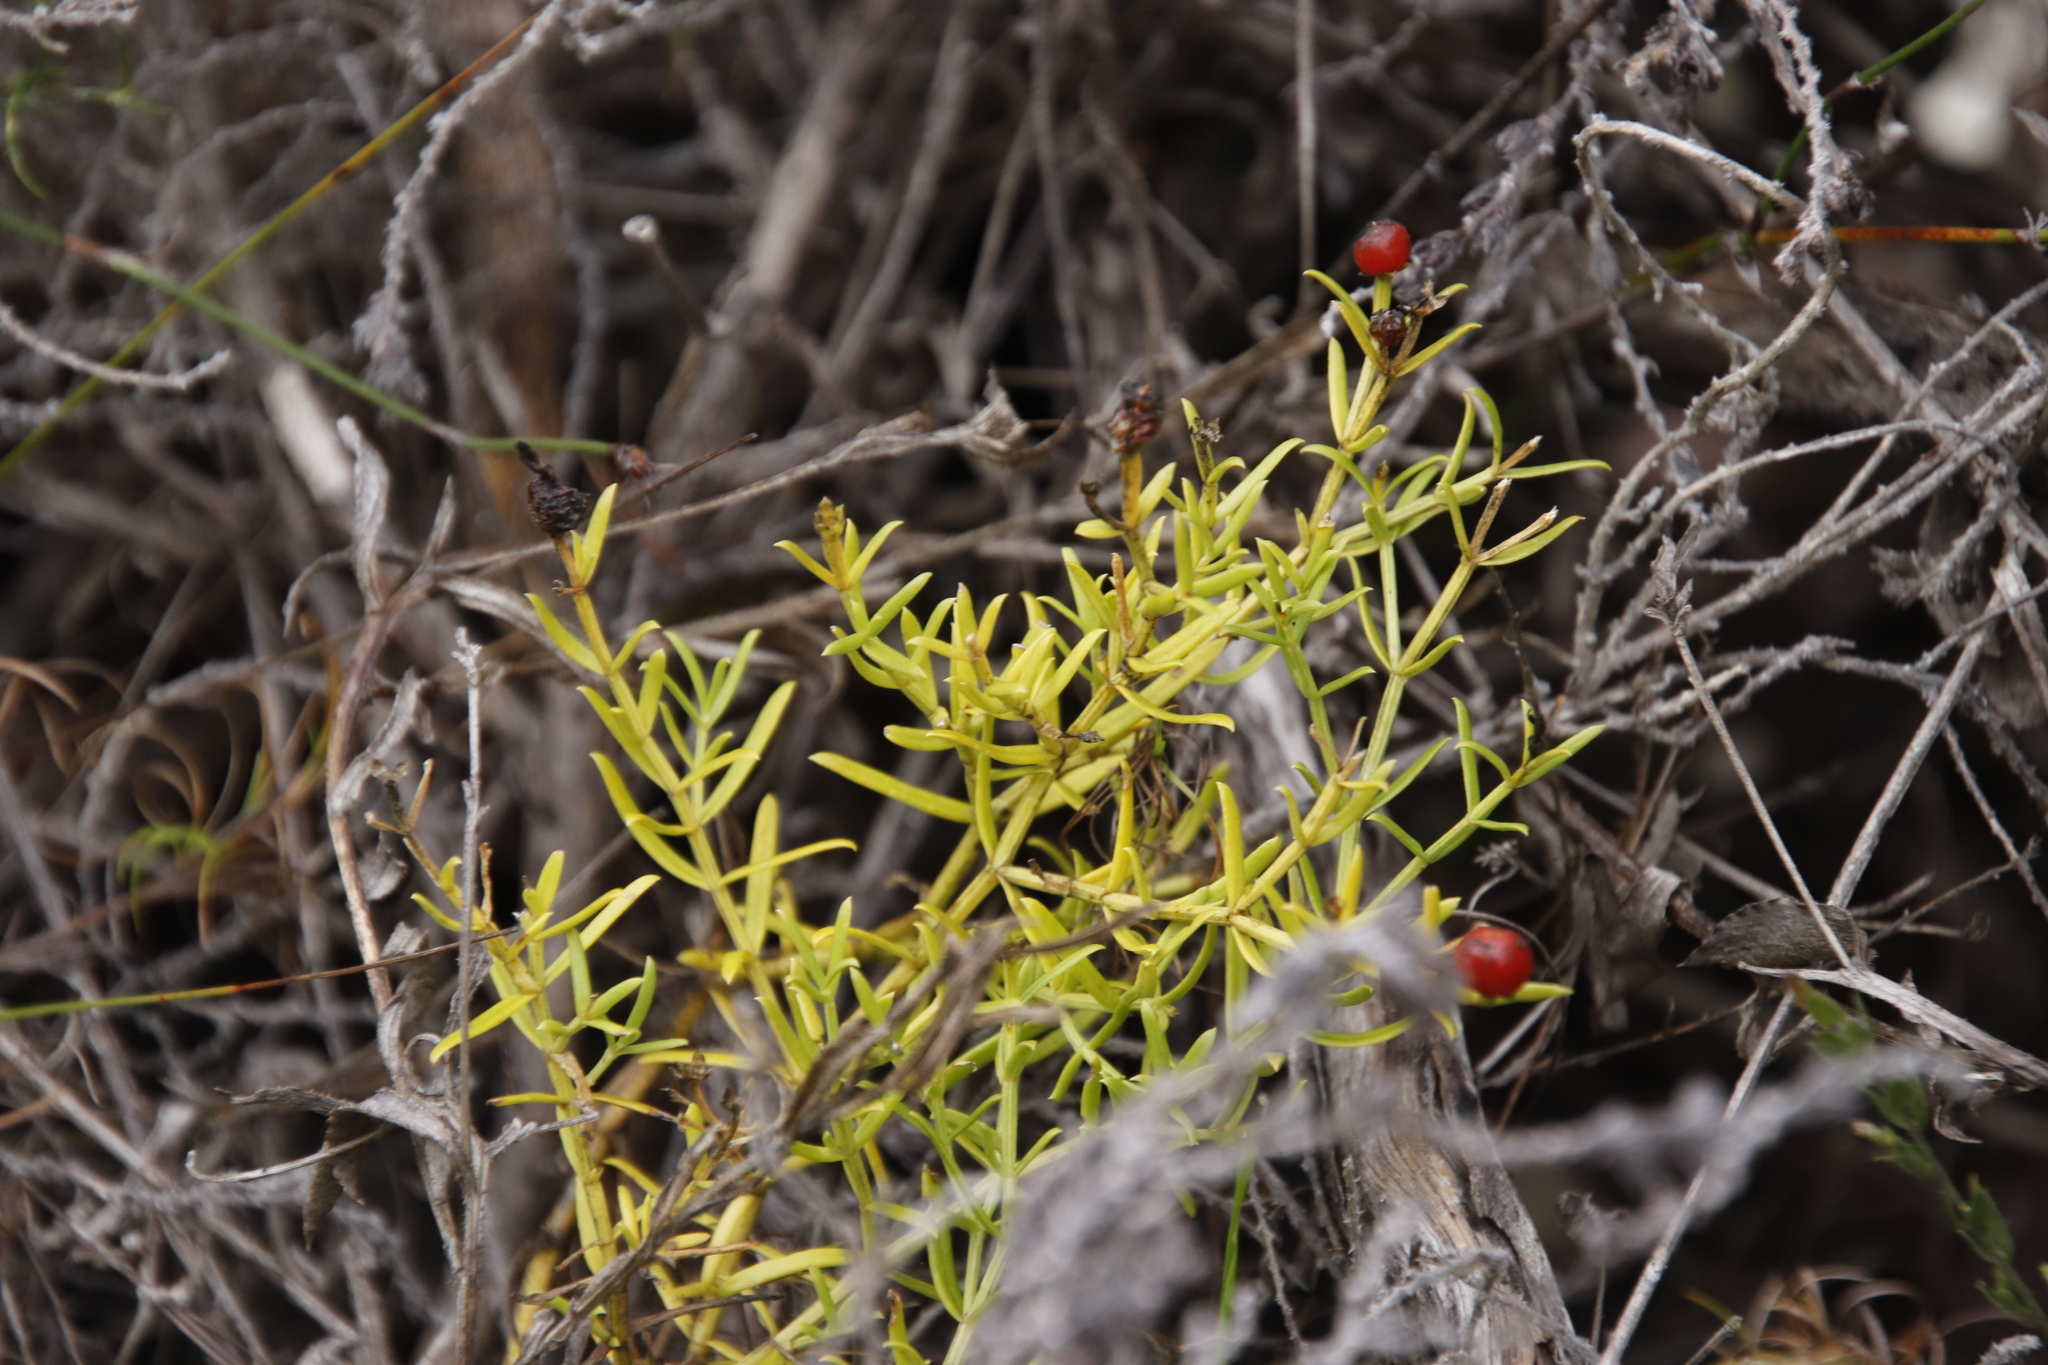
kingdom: Plantae
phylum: Tracheophyta
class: Magnoliopsida
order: Gentianales
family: Gentianaceae
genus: Chironia
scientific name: Chironia baccifera
